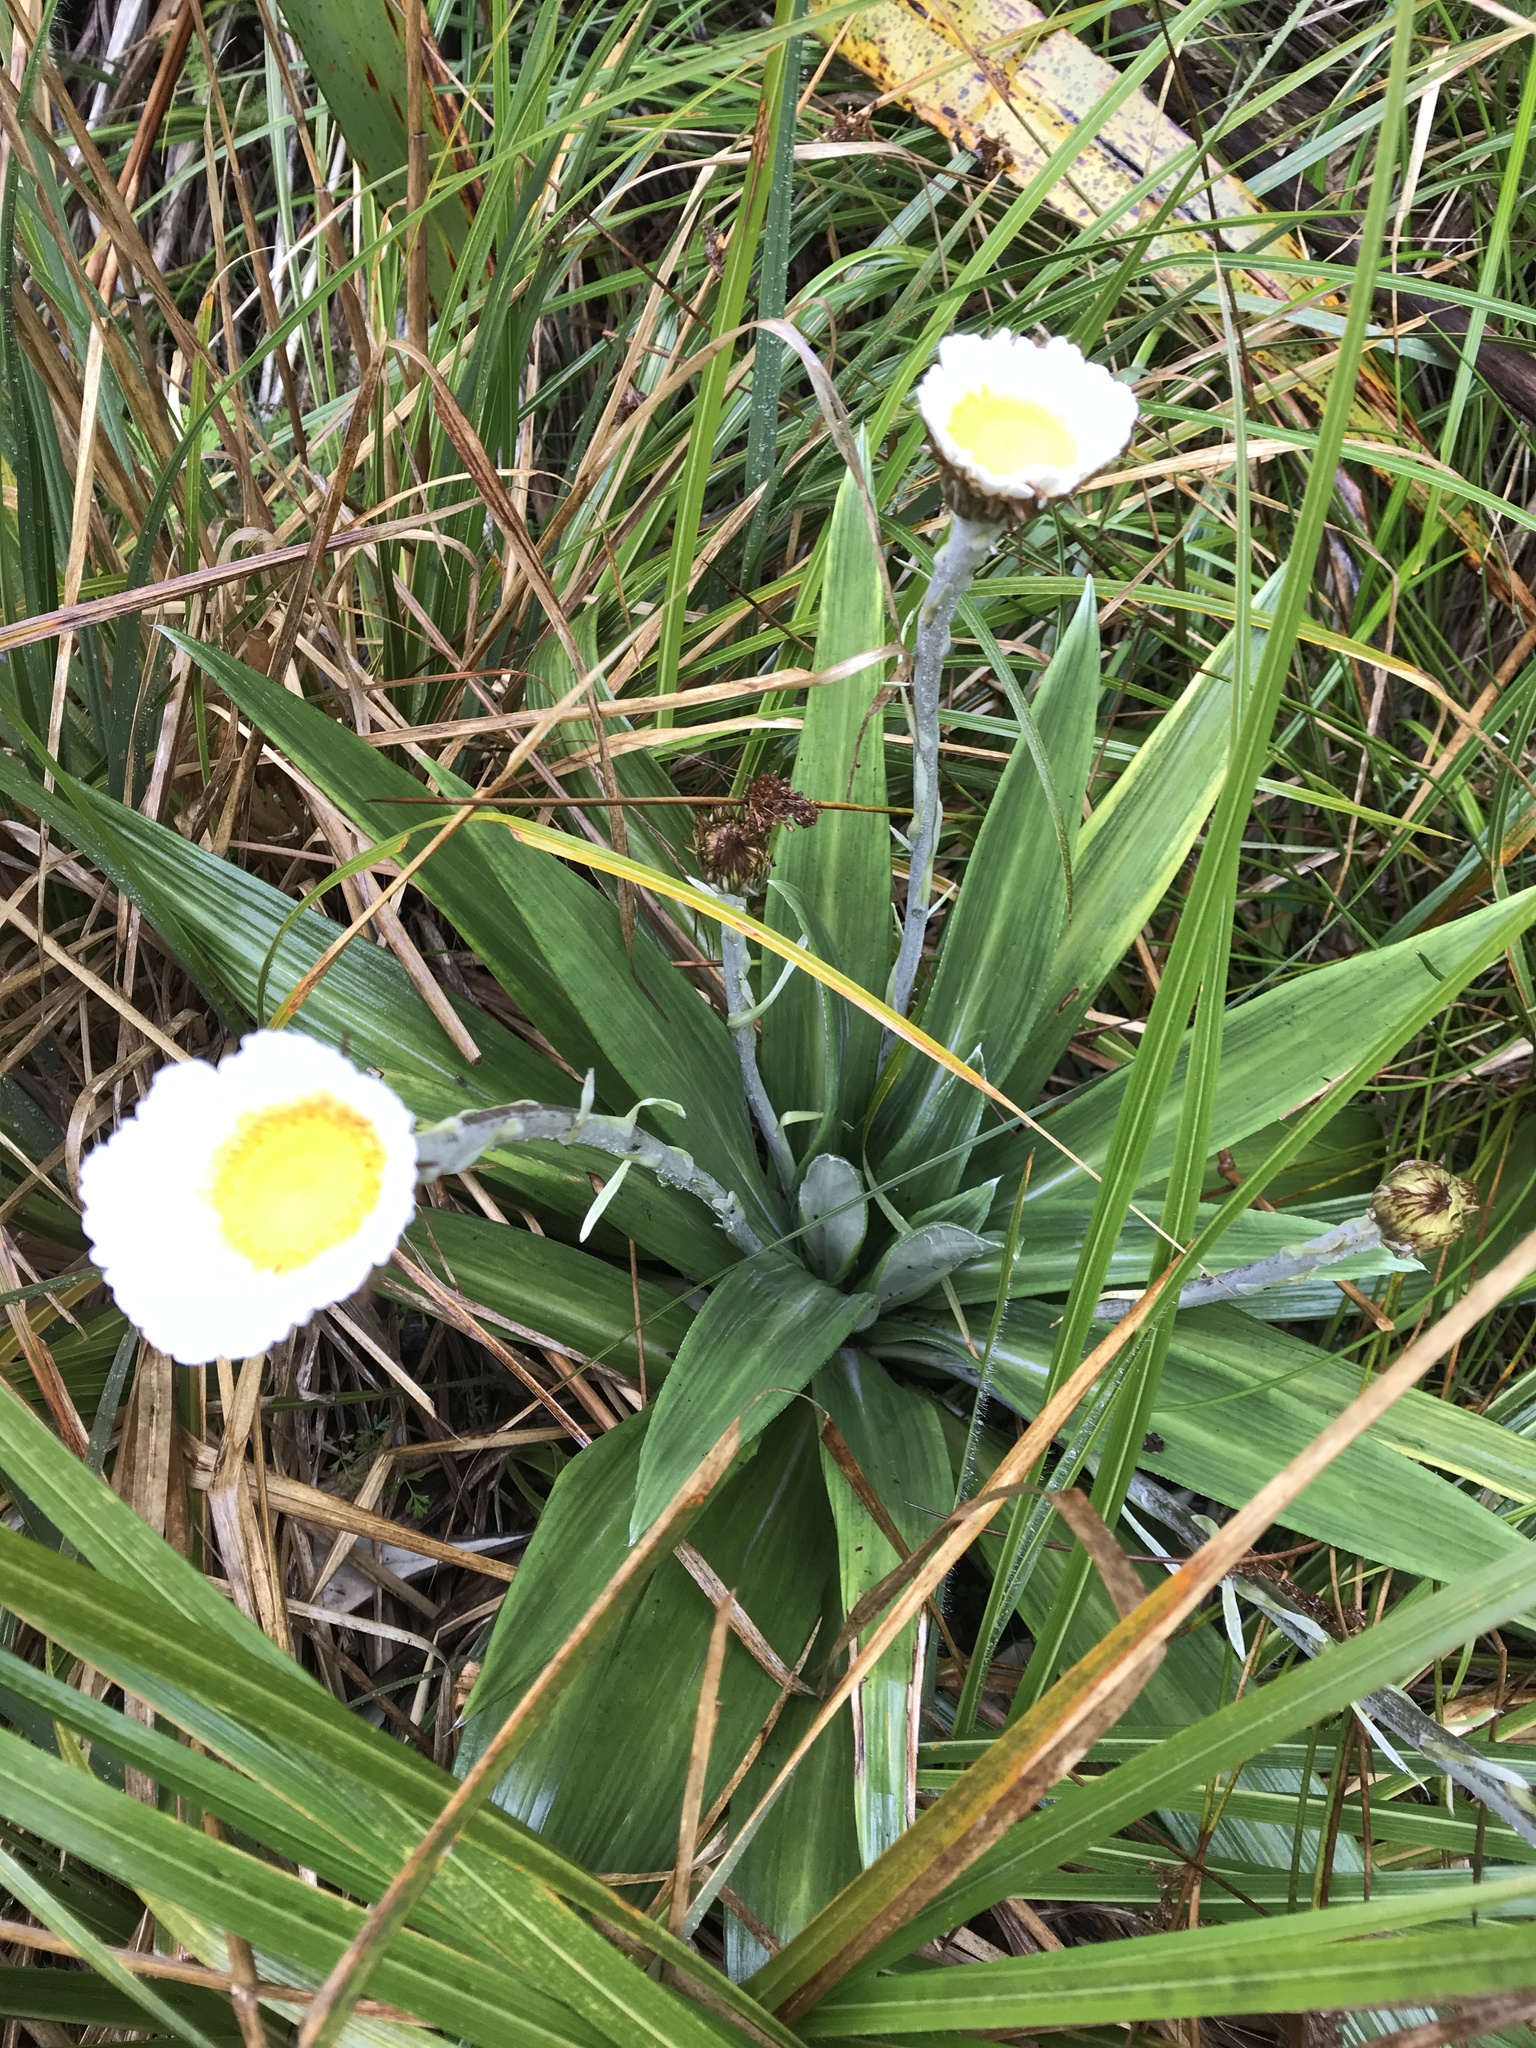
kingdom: Plantae
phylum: Tracheophyta
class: Magnoliopsida
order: Asterales
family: Asteraceae
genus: Celmisia
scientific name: Celmisia semicordata
